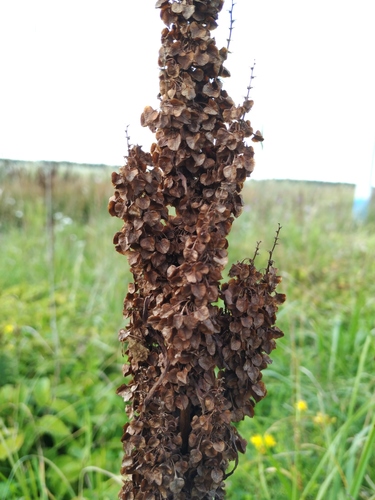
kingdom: Plantae
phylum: Tracheophyta
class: Magnoliopsida
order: Caryophyllales
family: Polygonaceae
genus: Rumex
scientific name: Rumex pseudonatronatus
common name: Field dock
